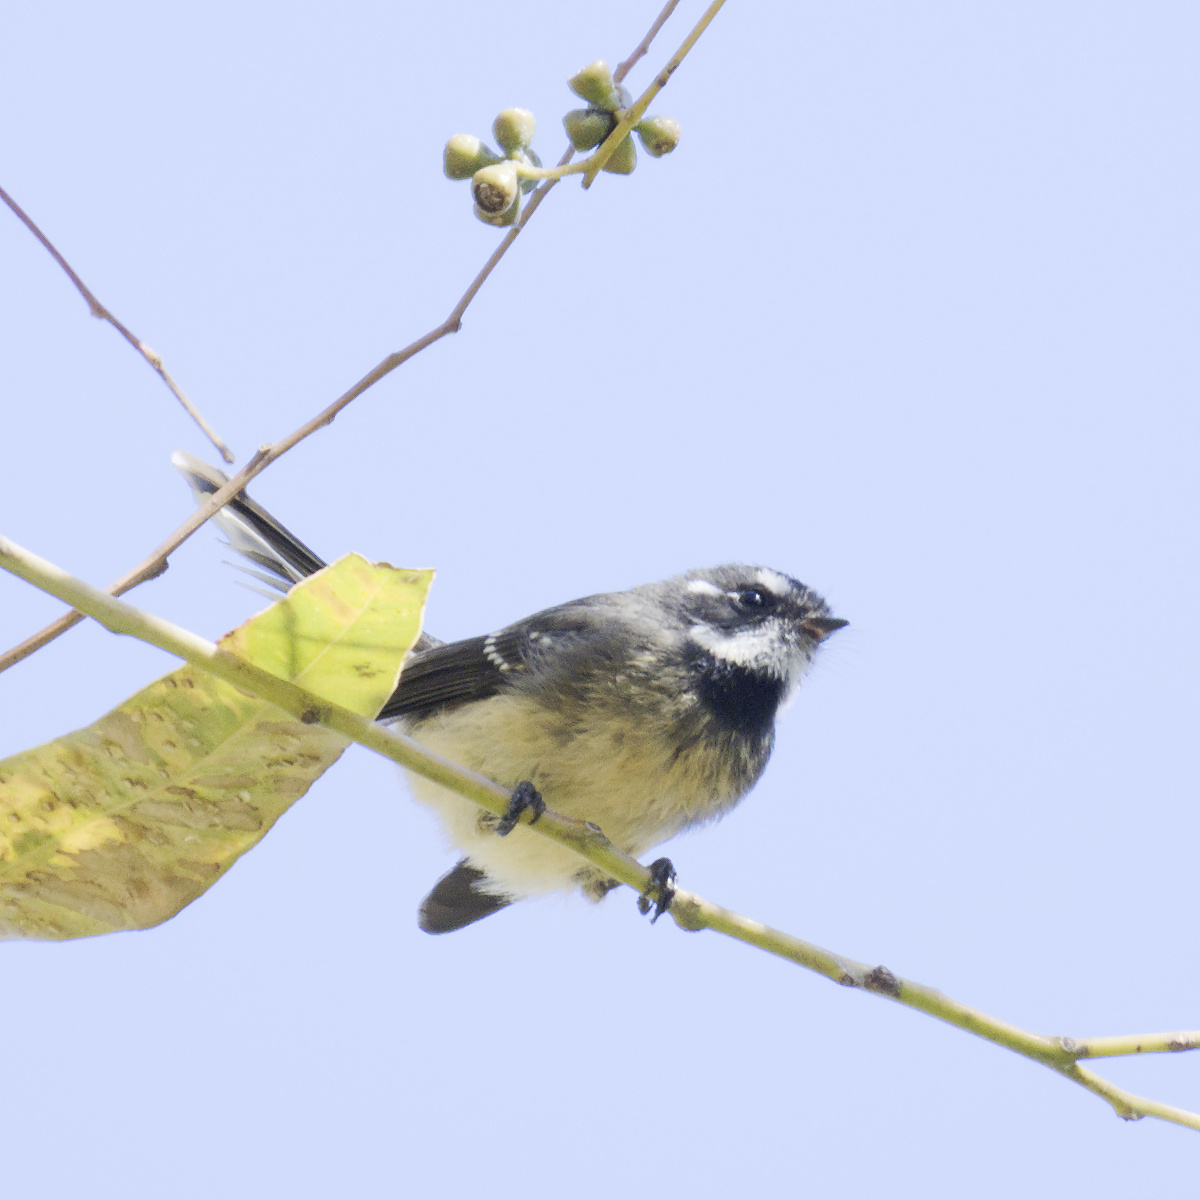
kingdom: Animalia
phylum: Chordata
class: Aves
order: Passeriformes
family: Rhipiduridae
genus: Rhipidura
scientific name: Rhipidura albiscapa
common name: Grey fantail
